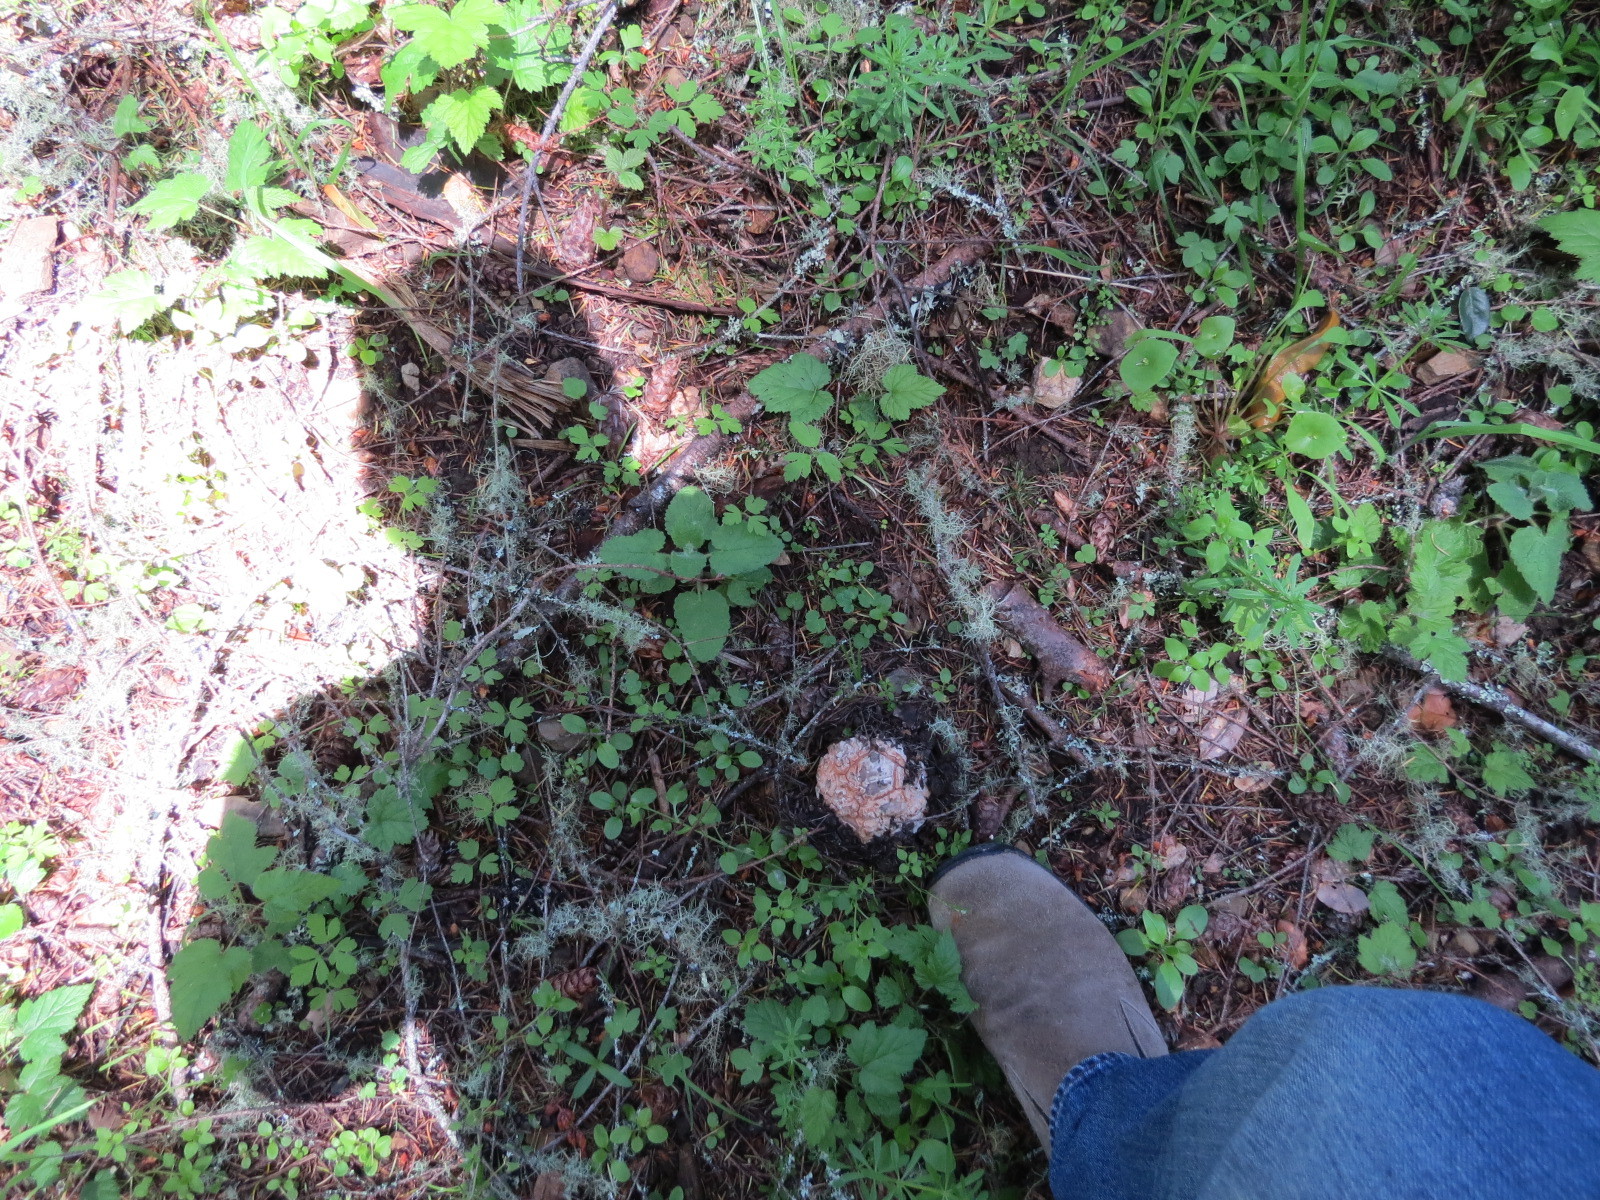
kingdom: Fungi
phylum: Basidiomycota
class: Agaricomycetes
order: Agaricales
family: Amanitaceae
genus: Amanita
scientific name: Amanita novinupta
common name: Blushing bride
